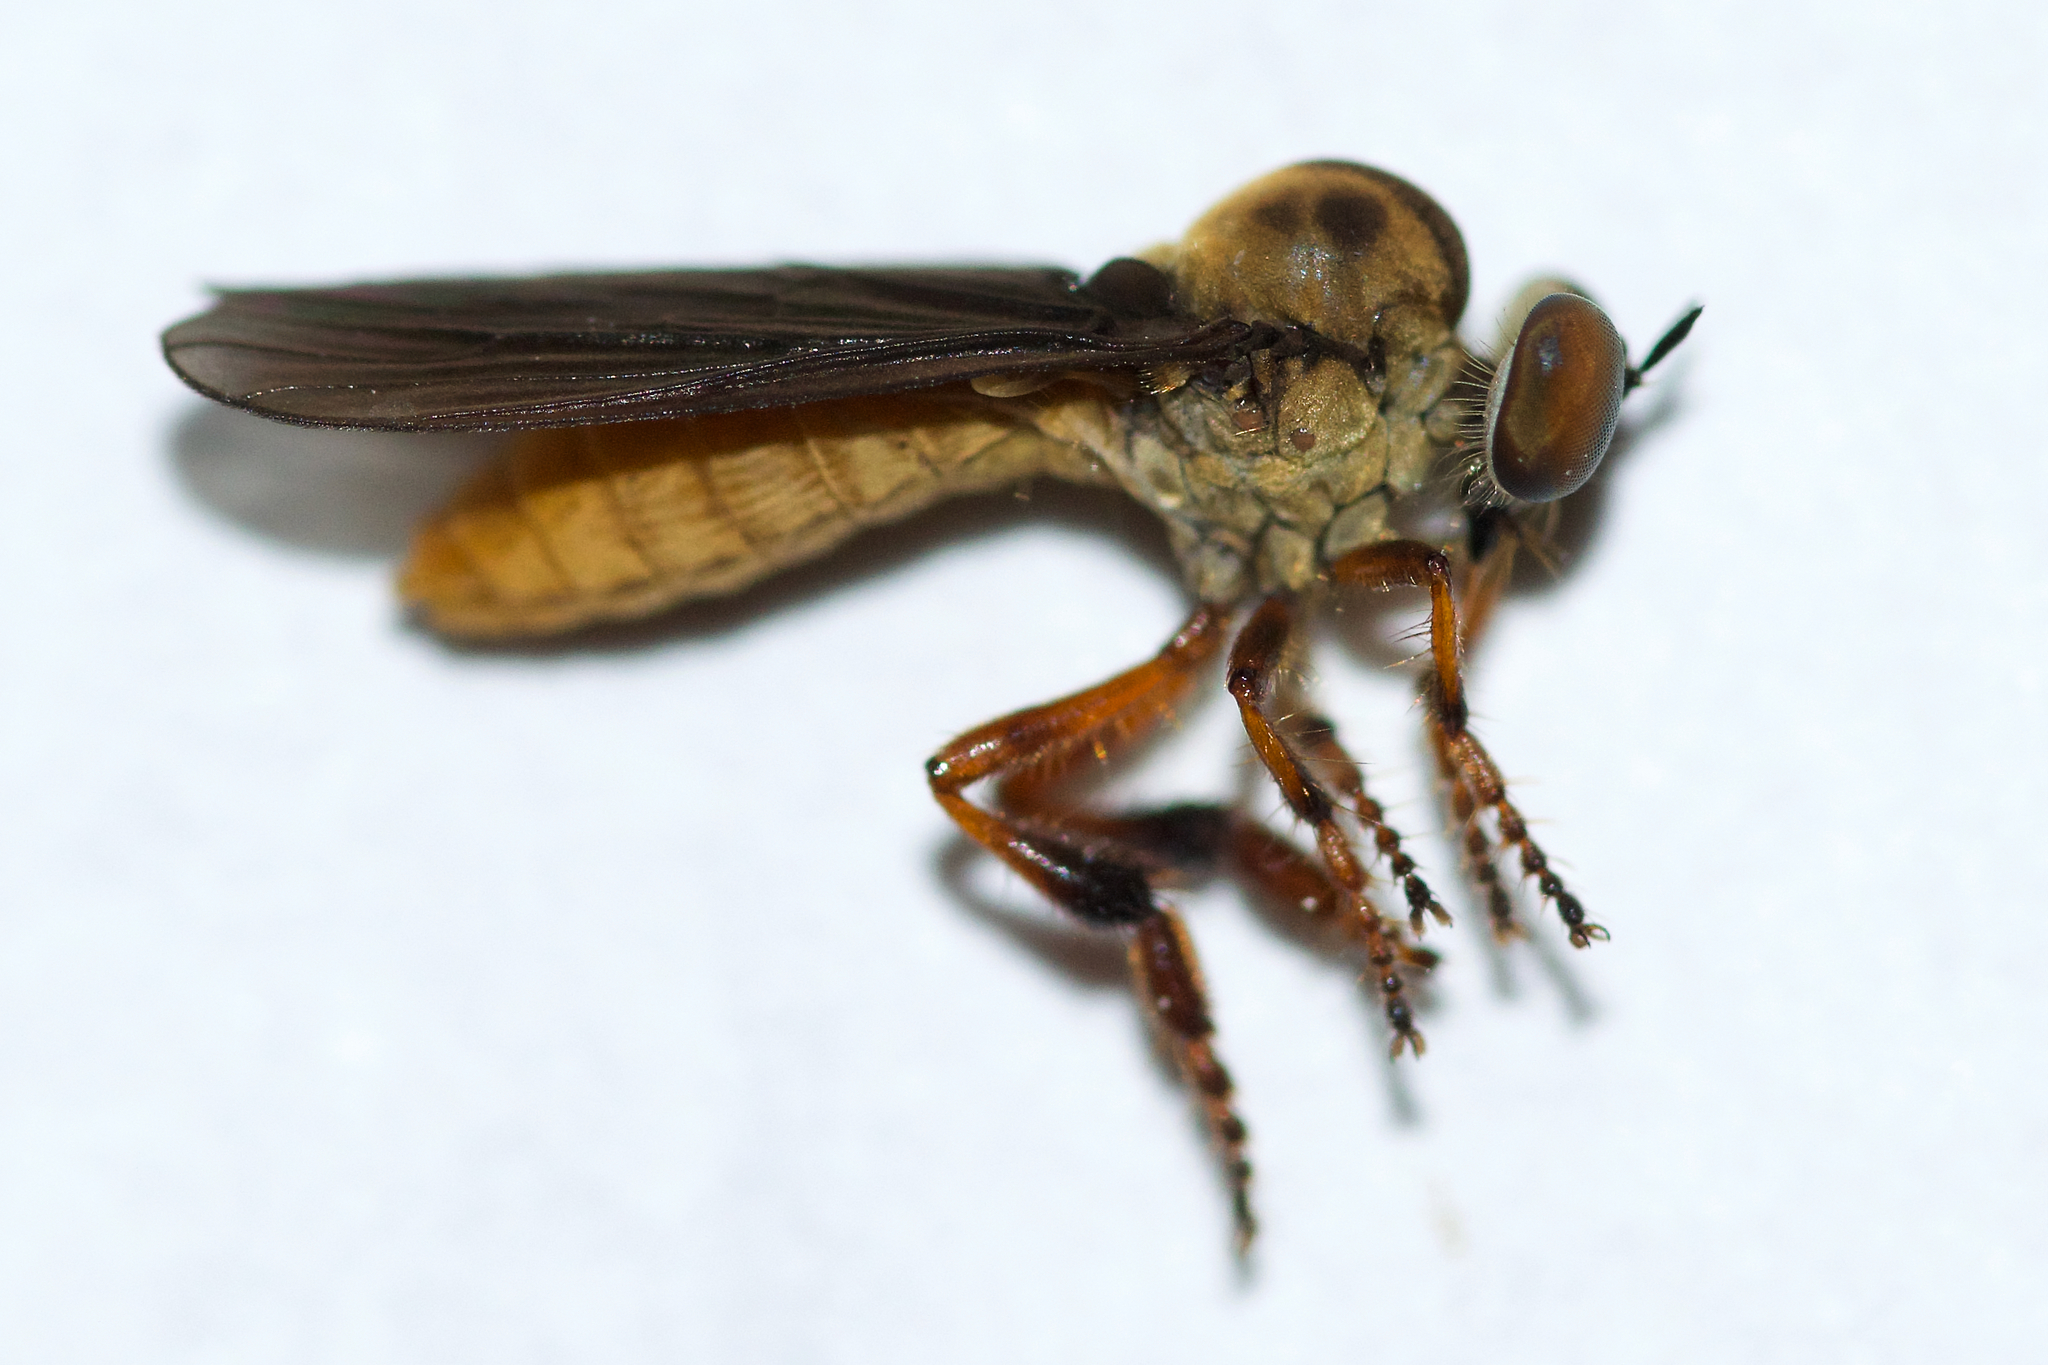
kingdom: Animalia
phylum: Arthropoda
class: Insecta
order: Diptera
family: Asilidae
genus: Holcocephala
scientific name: Holcocephala abdominalis
